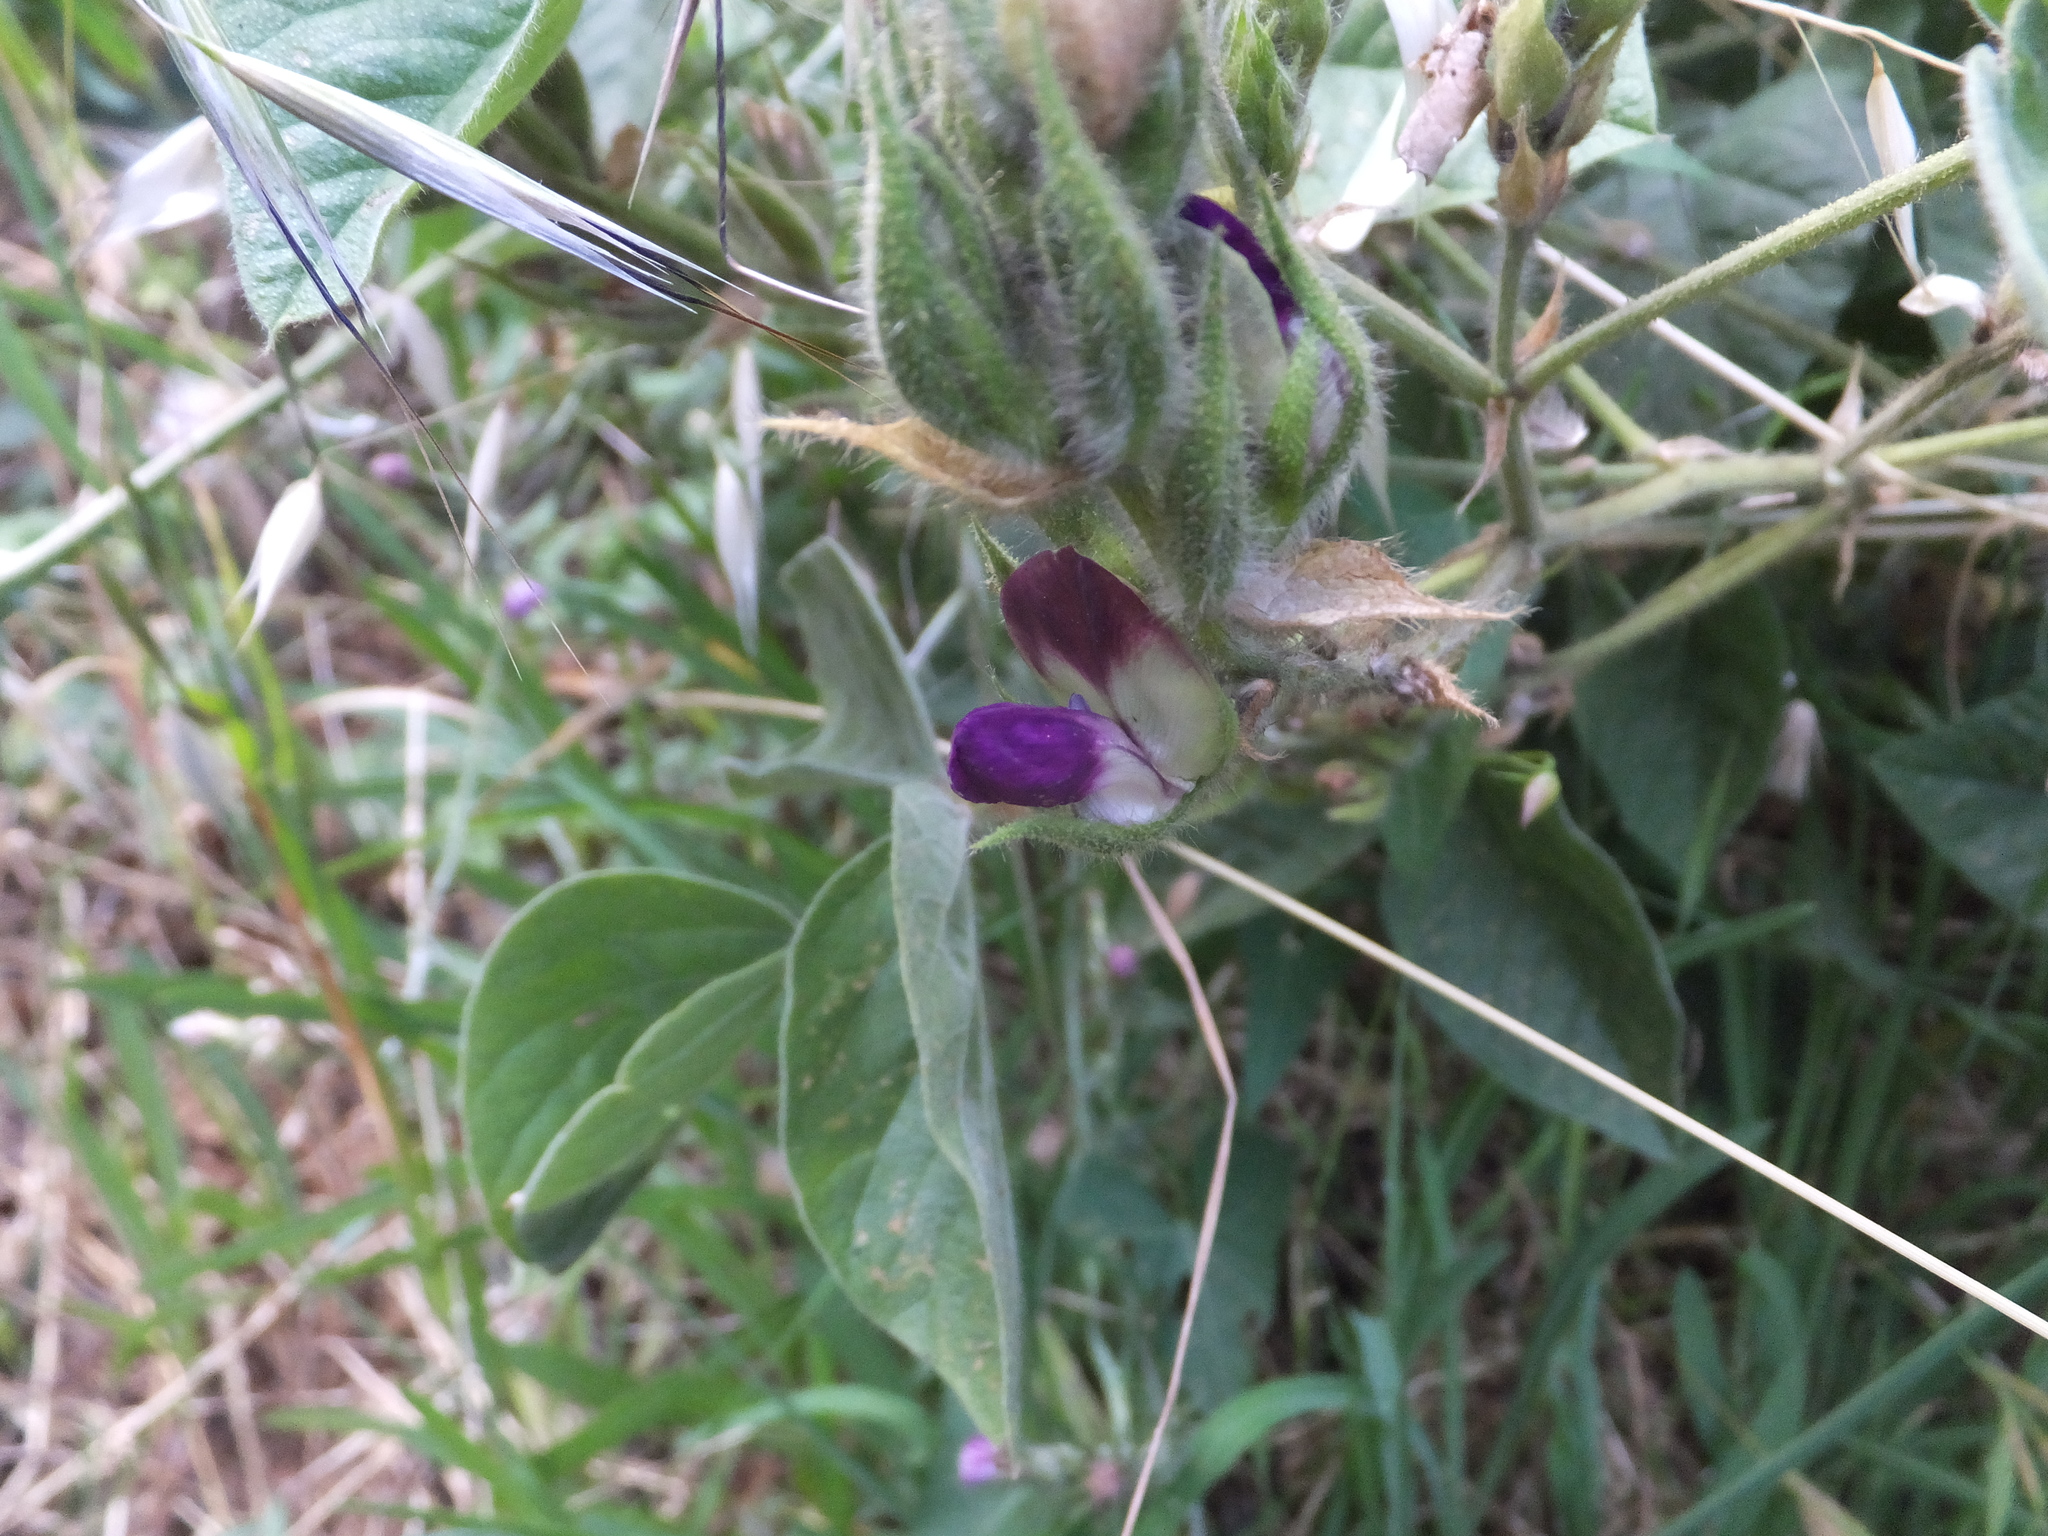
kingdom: Plantae
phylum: Tracheophyta
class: Magnoliopsida
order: Fabales
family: Fabaceae
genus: Hoita
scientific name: Hoita strobilina
